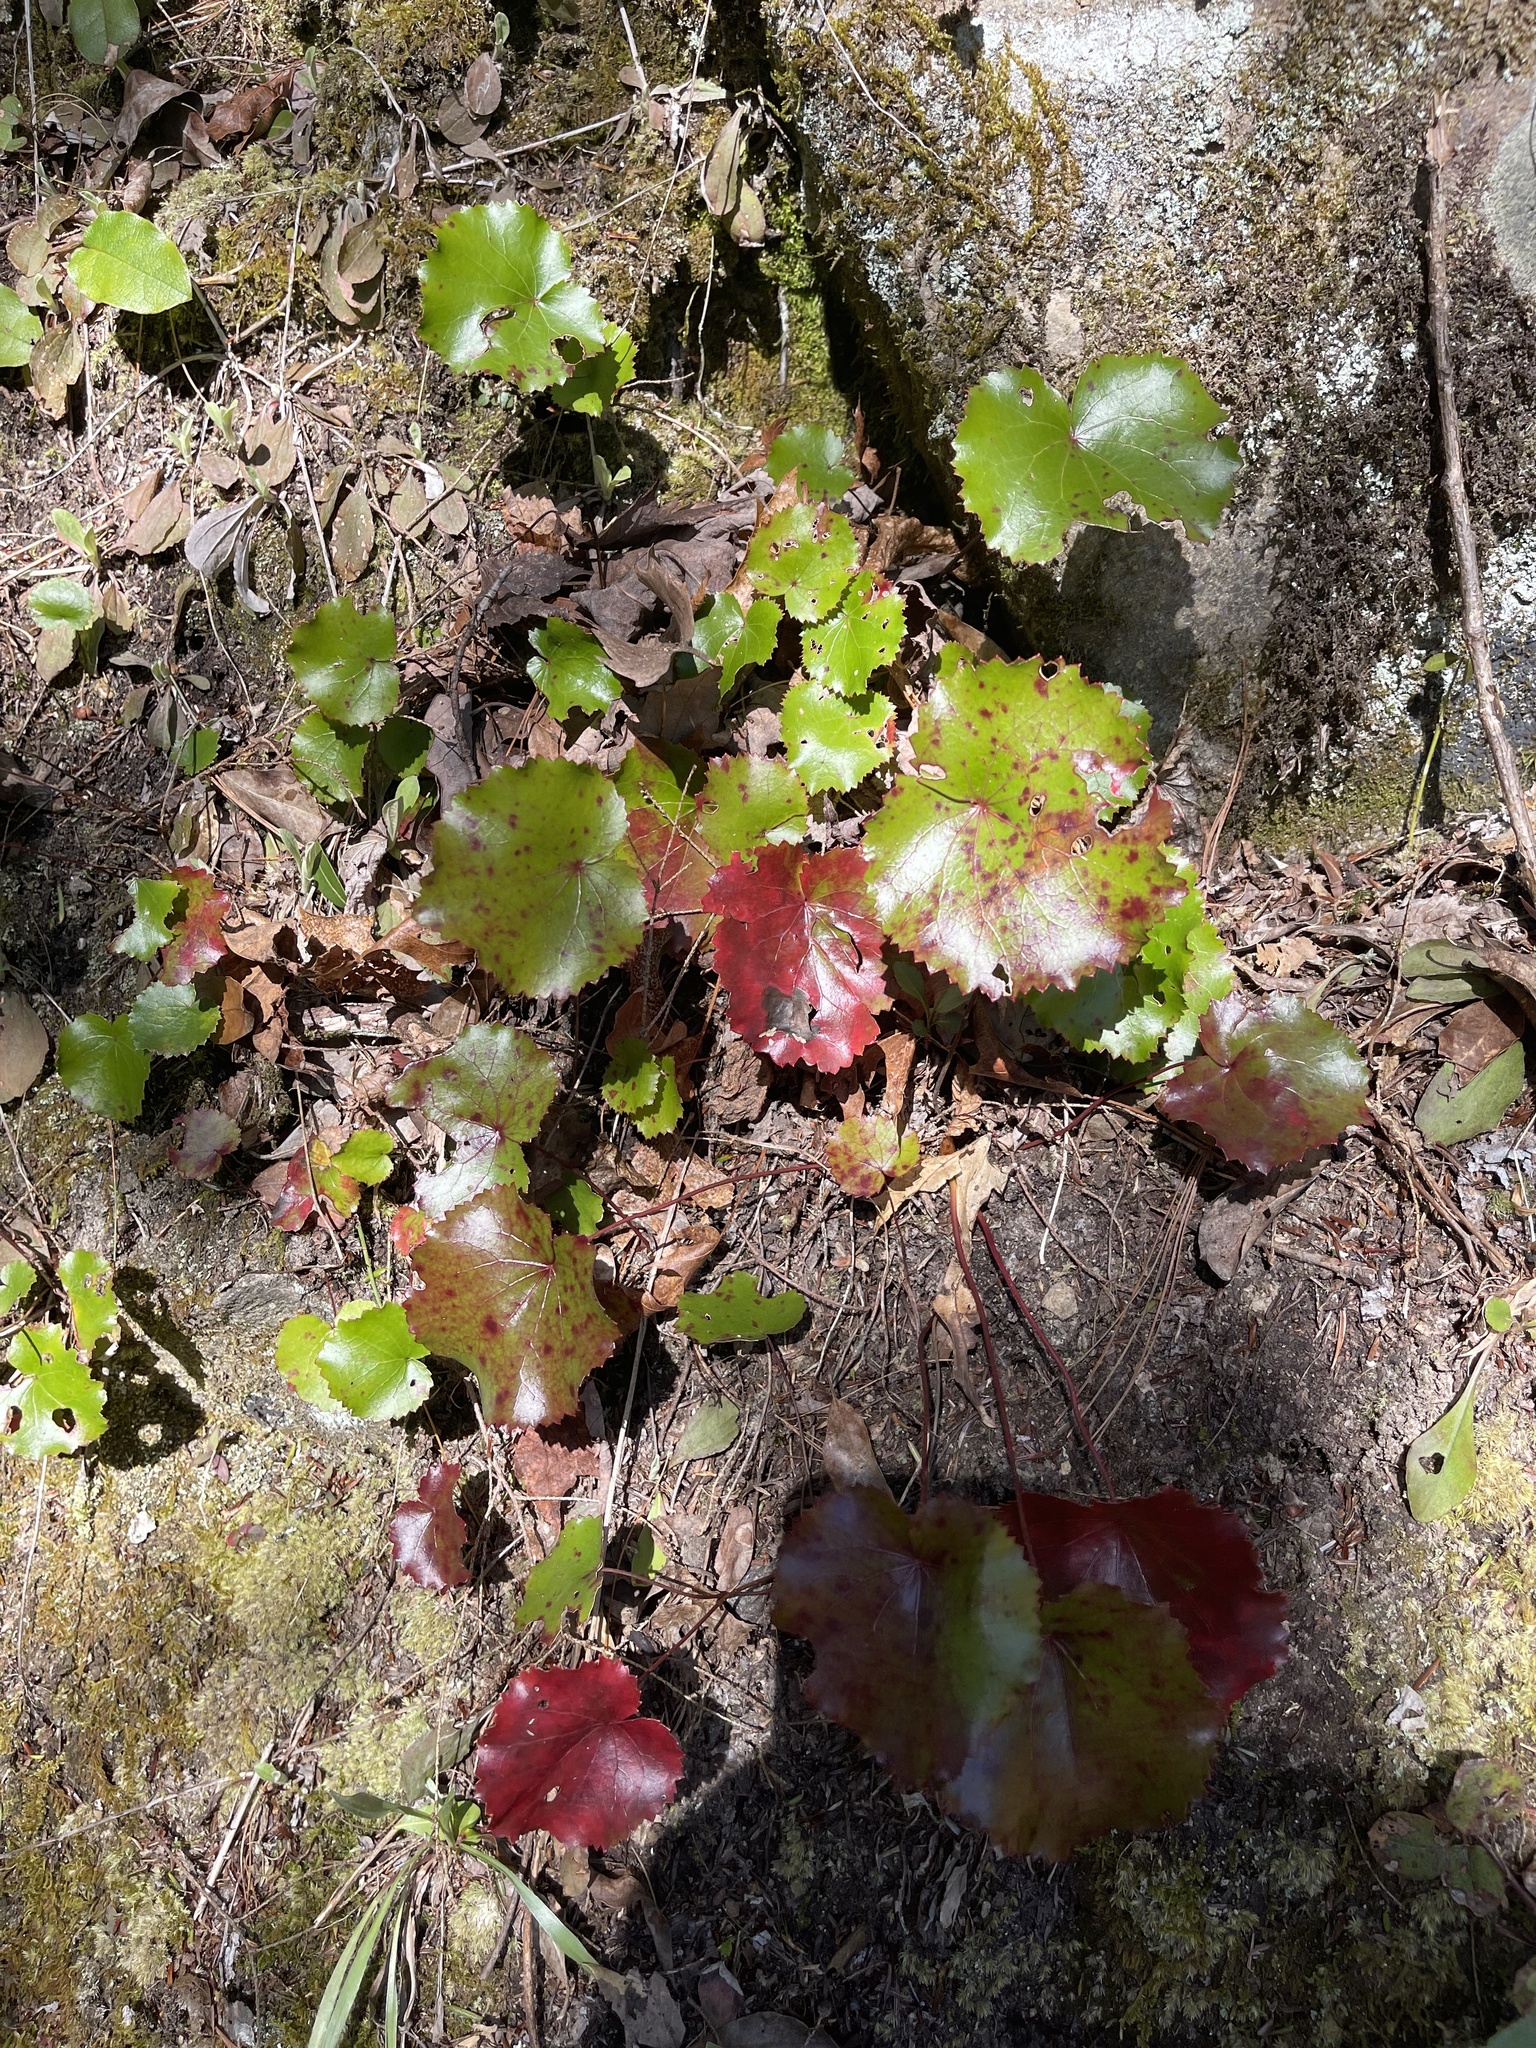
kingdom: Plantae
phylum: Tracheophyta
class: Magnoliopsida
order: Ericales
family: Diapensiaceae
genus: Galax
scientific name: Galax urceolata
